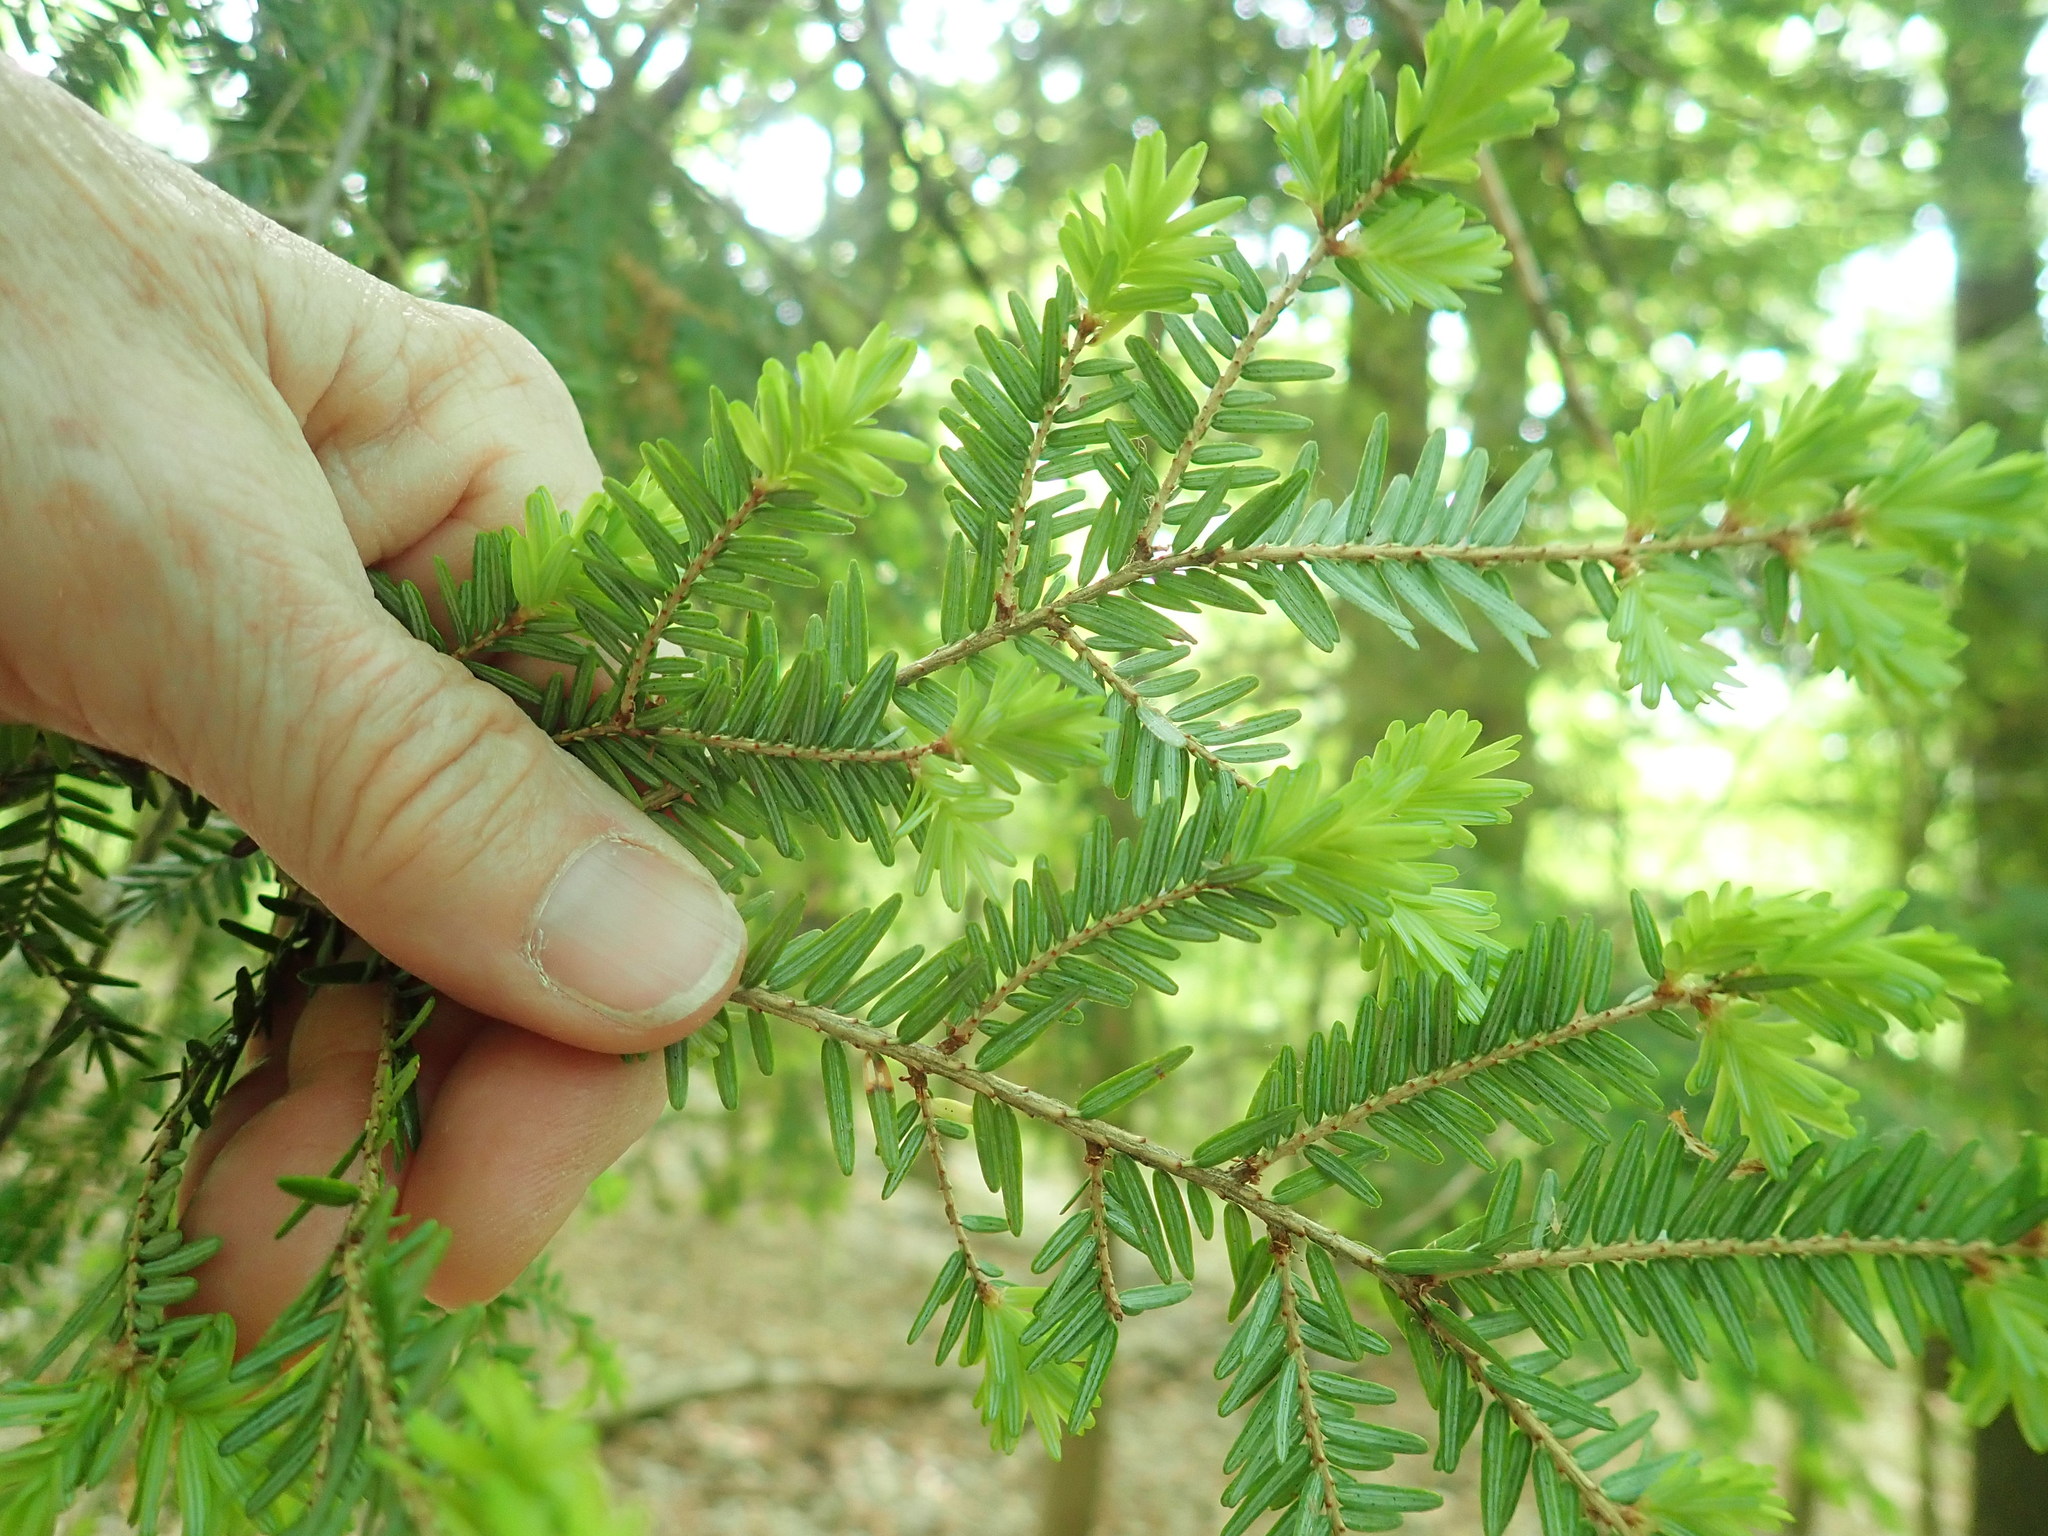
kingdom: Plantae
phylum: Tracheophyta
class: Pinopsida
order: Pinales
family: Pinaceae
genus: Tsuga
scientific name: Tsuga canadensis
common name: Eastern hemlock
